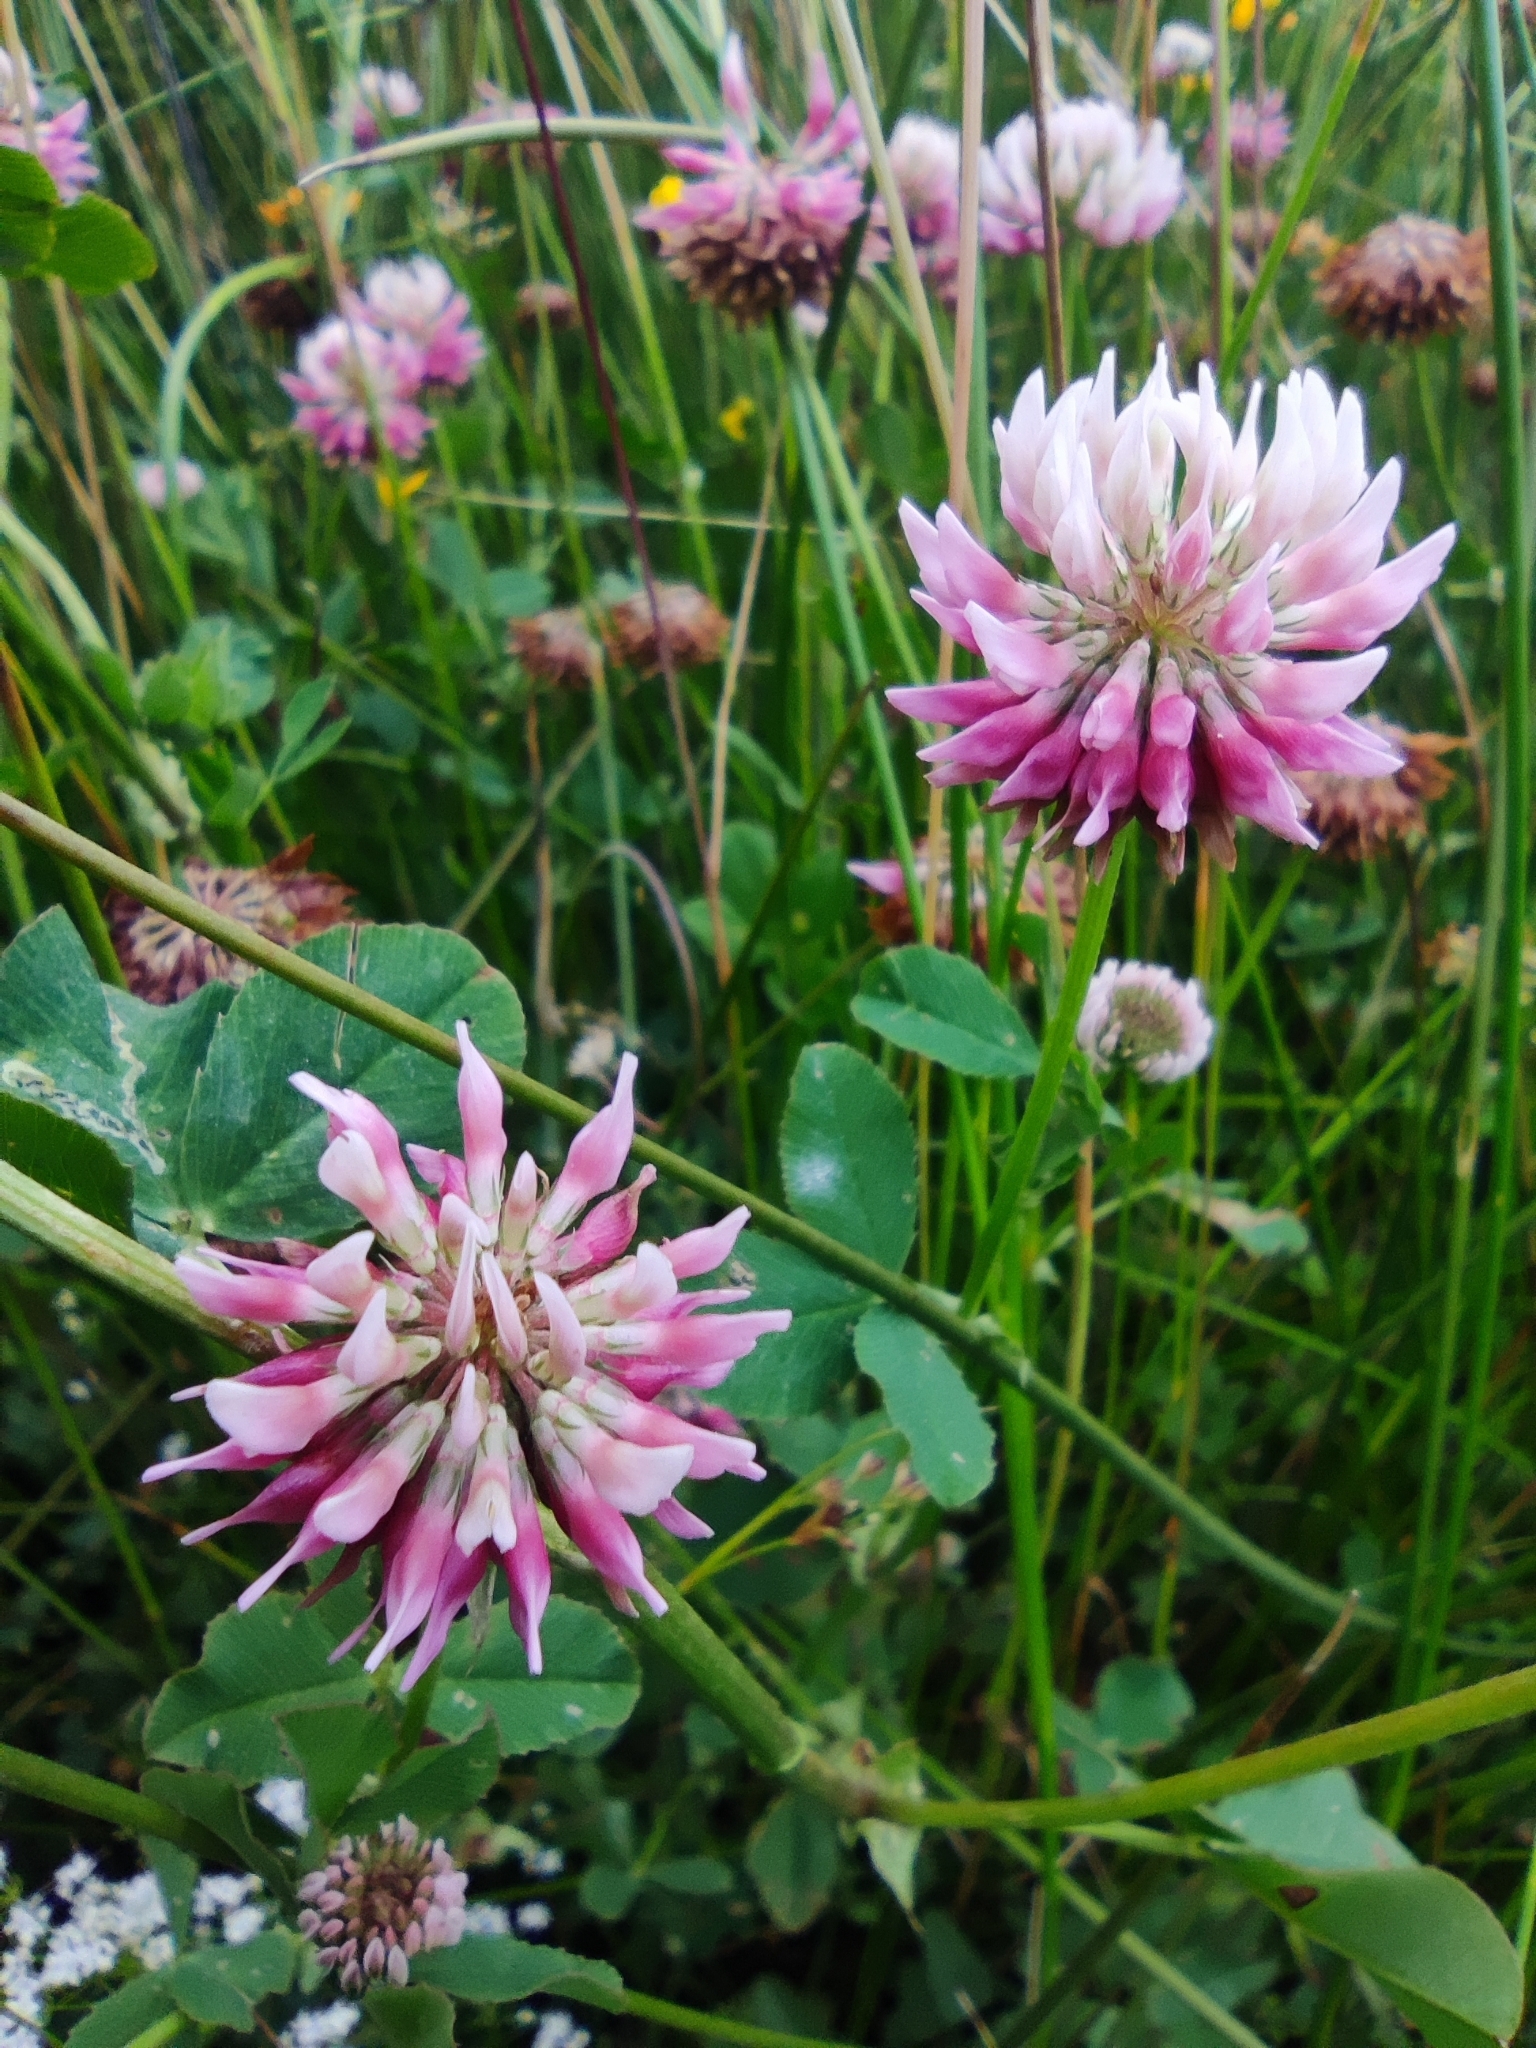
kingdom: Plantae
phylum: Tracheophyta
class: Magnoliopsida
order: Fabales
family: Fabaceae
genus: Trifolium
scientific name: Trifolium hybridum
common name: Alsike clover
